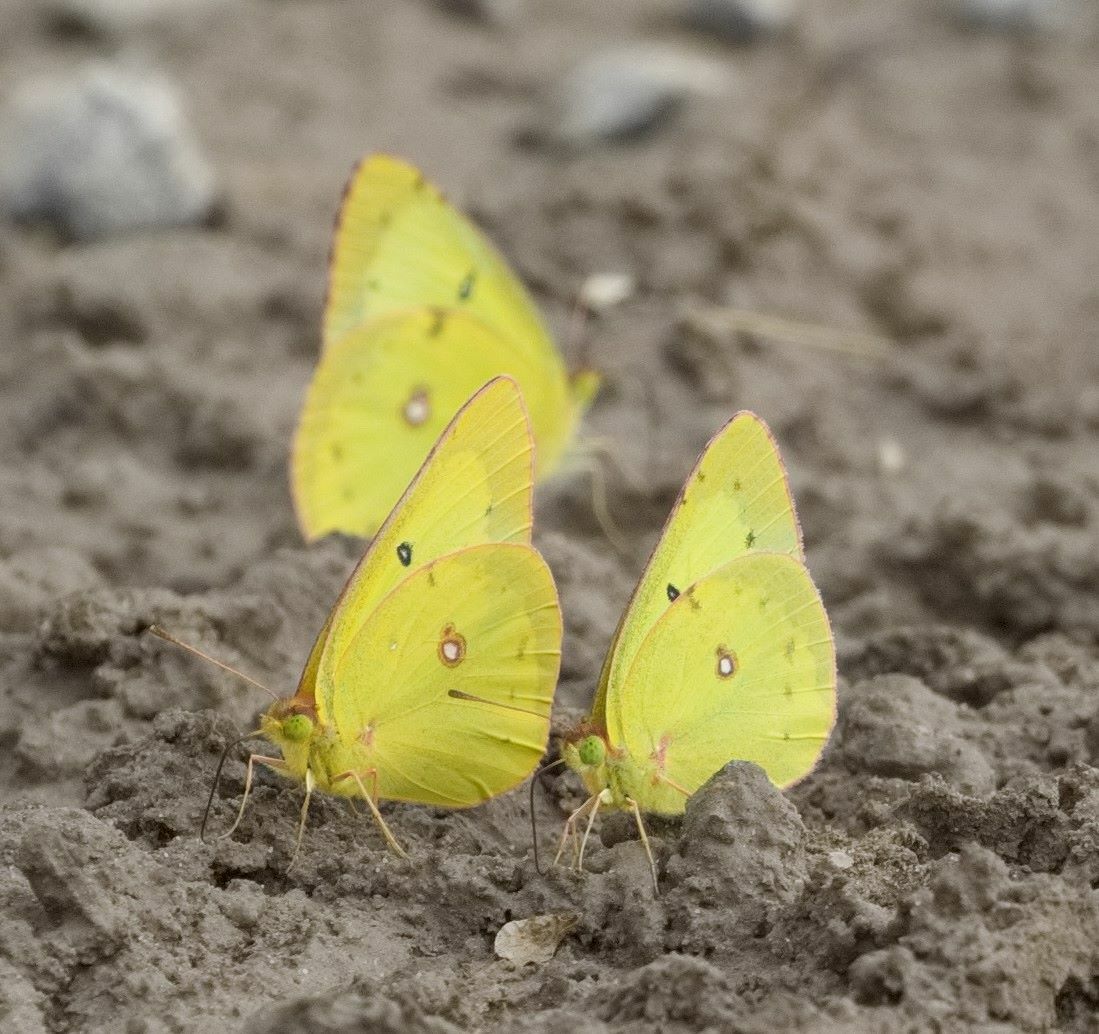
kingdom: Animalia
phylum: Arthropoda
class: Insecta
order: Lepidoptera
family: Pieridae
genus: Colias
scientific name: Colias philodice
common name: Clouded sulphur
